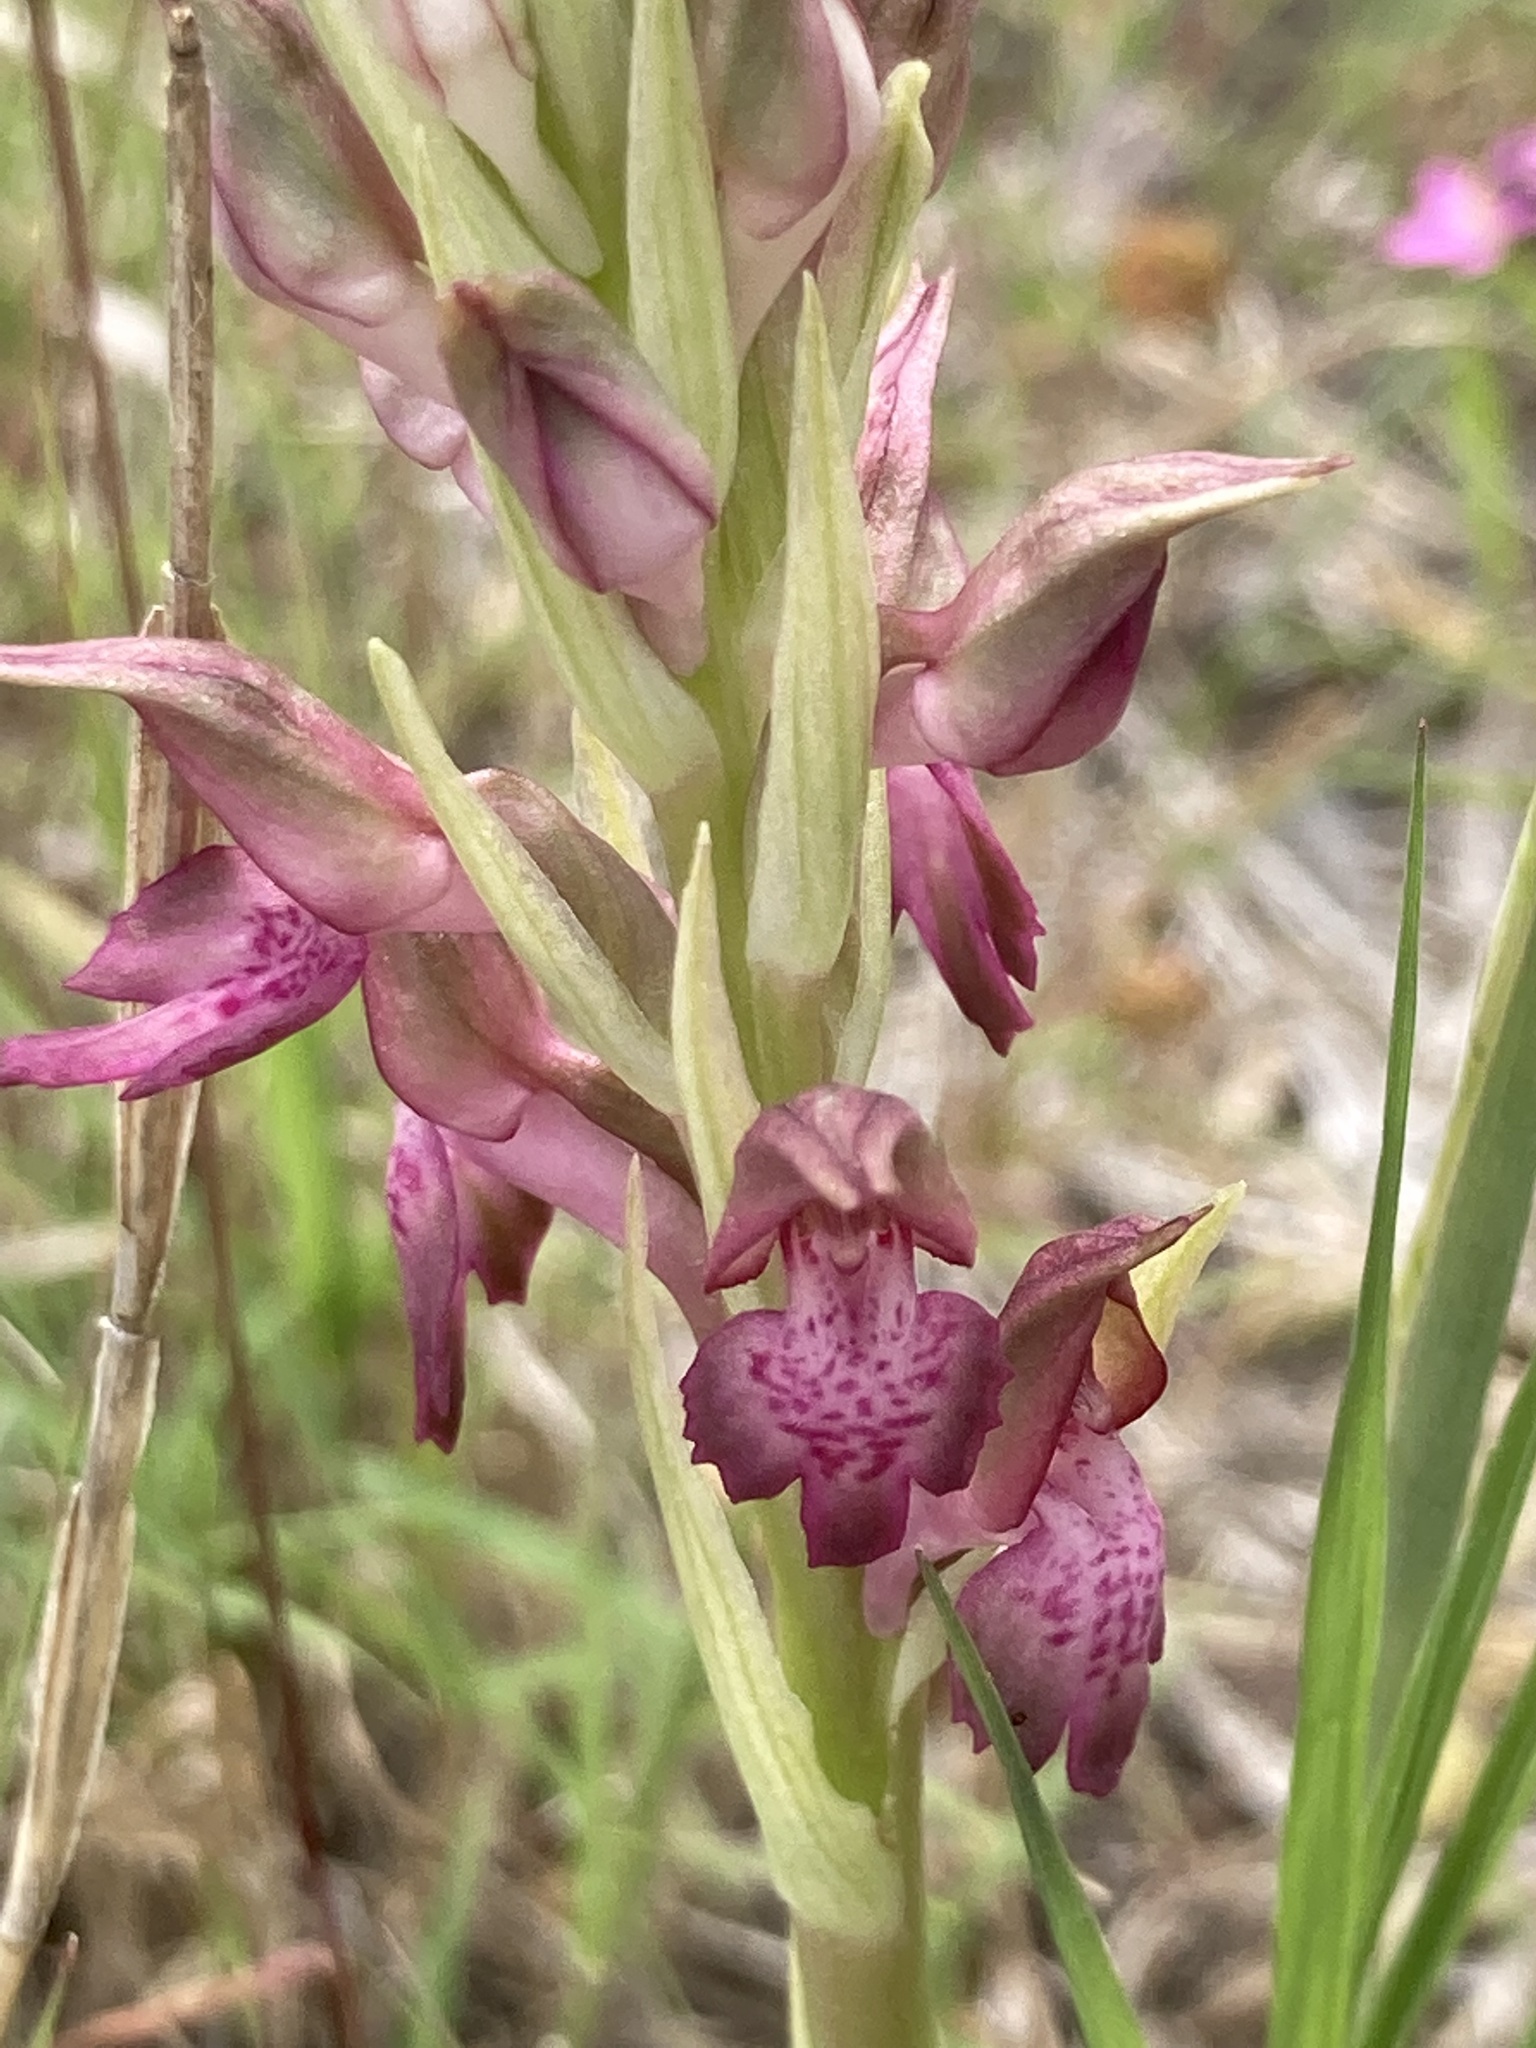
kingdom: Plantae
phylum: Tracheophyta
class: Liliopsida
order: Asparagales
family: Orchidaceae
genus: Anacamptis
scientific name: Anacamptis coriophora
